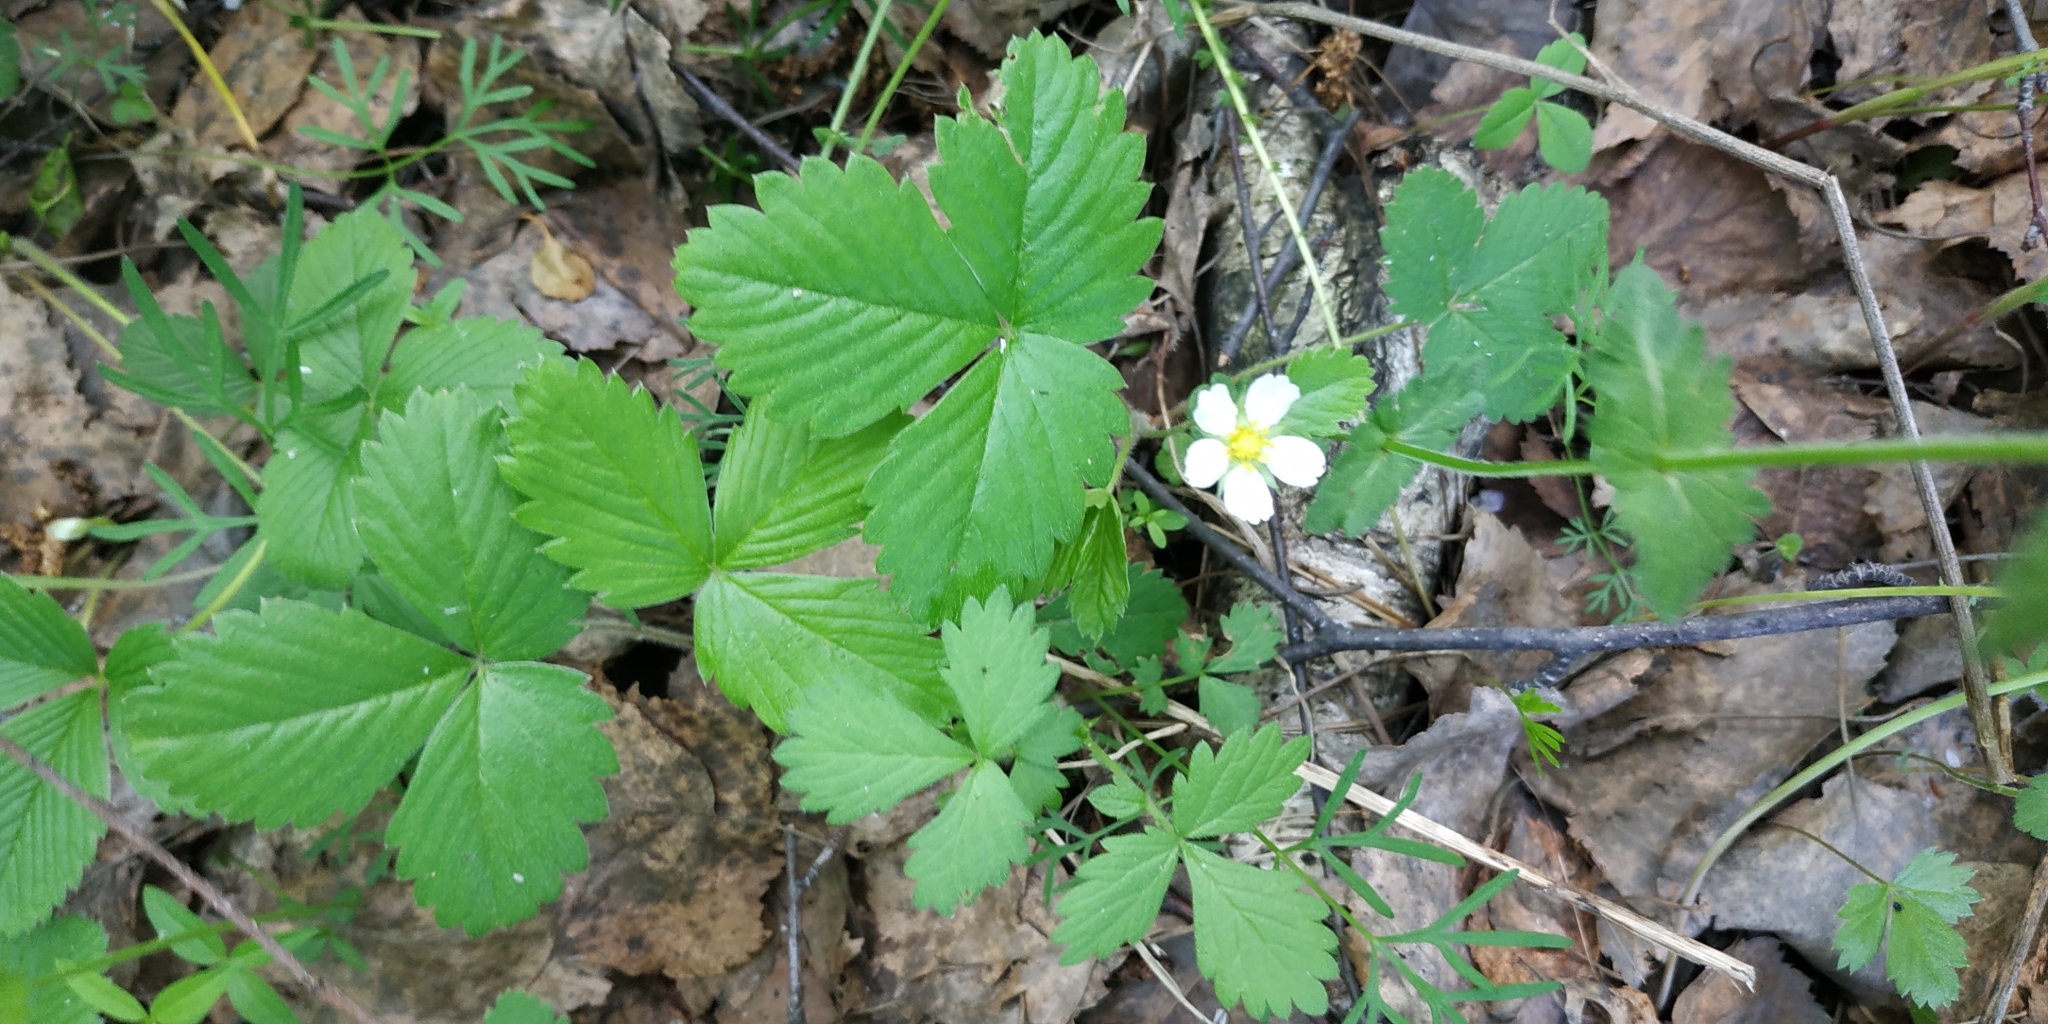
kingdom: Plantae
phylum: Tracheophyta
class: Magnoliopsida
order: Rosales
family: Rosaceae
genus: Fragaria
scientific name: Fragaria vesca
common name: Wild strawberry
